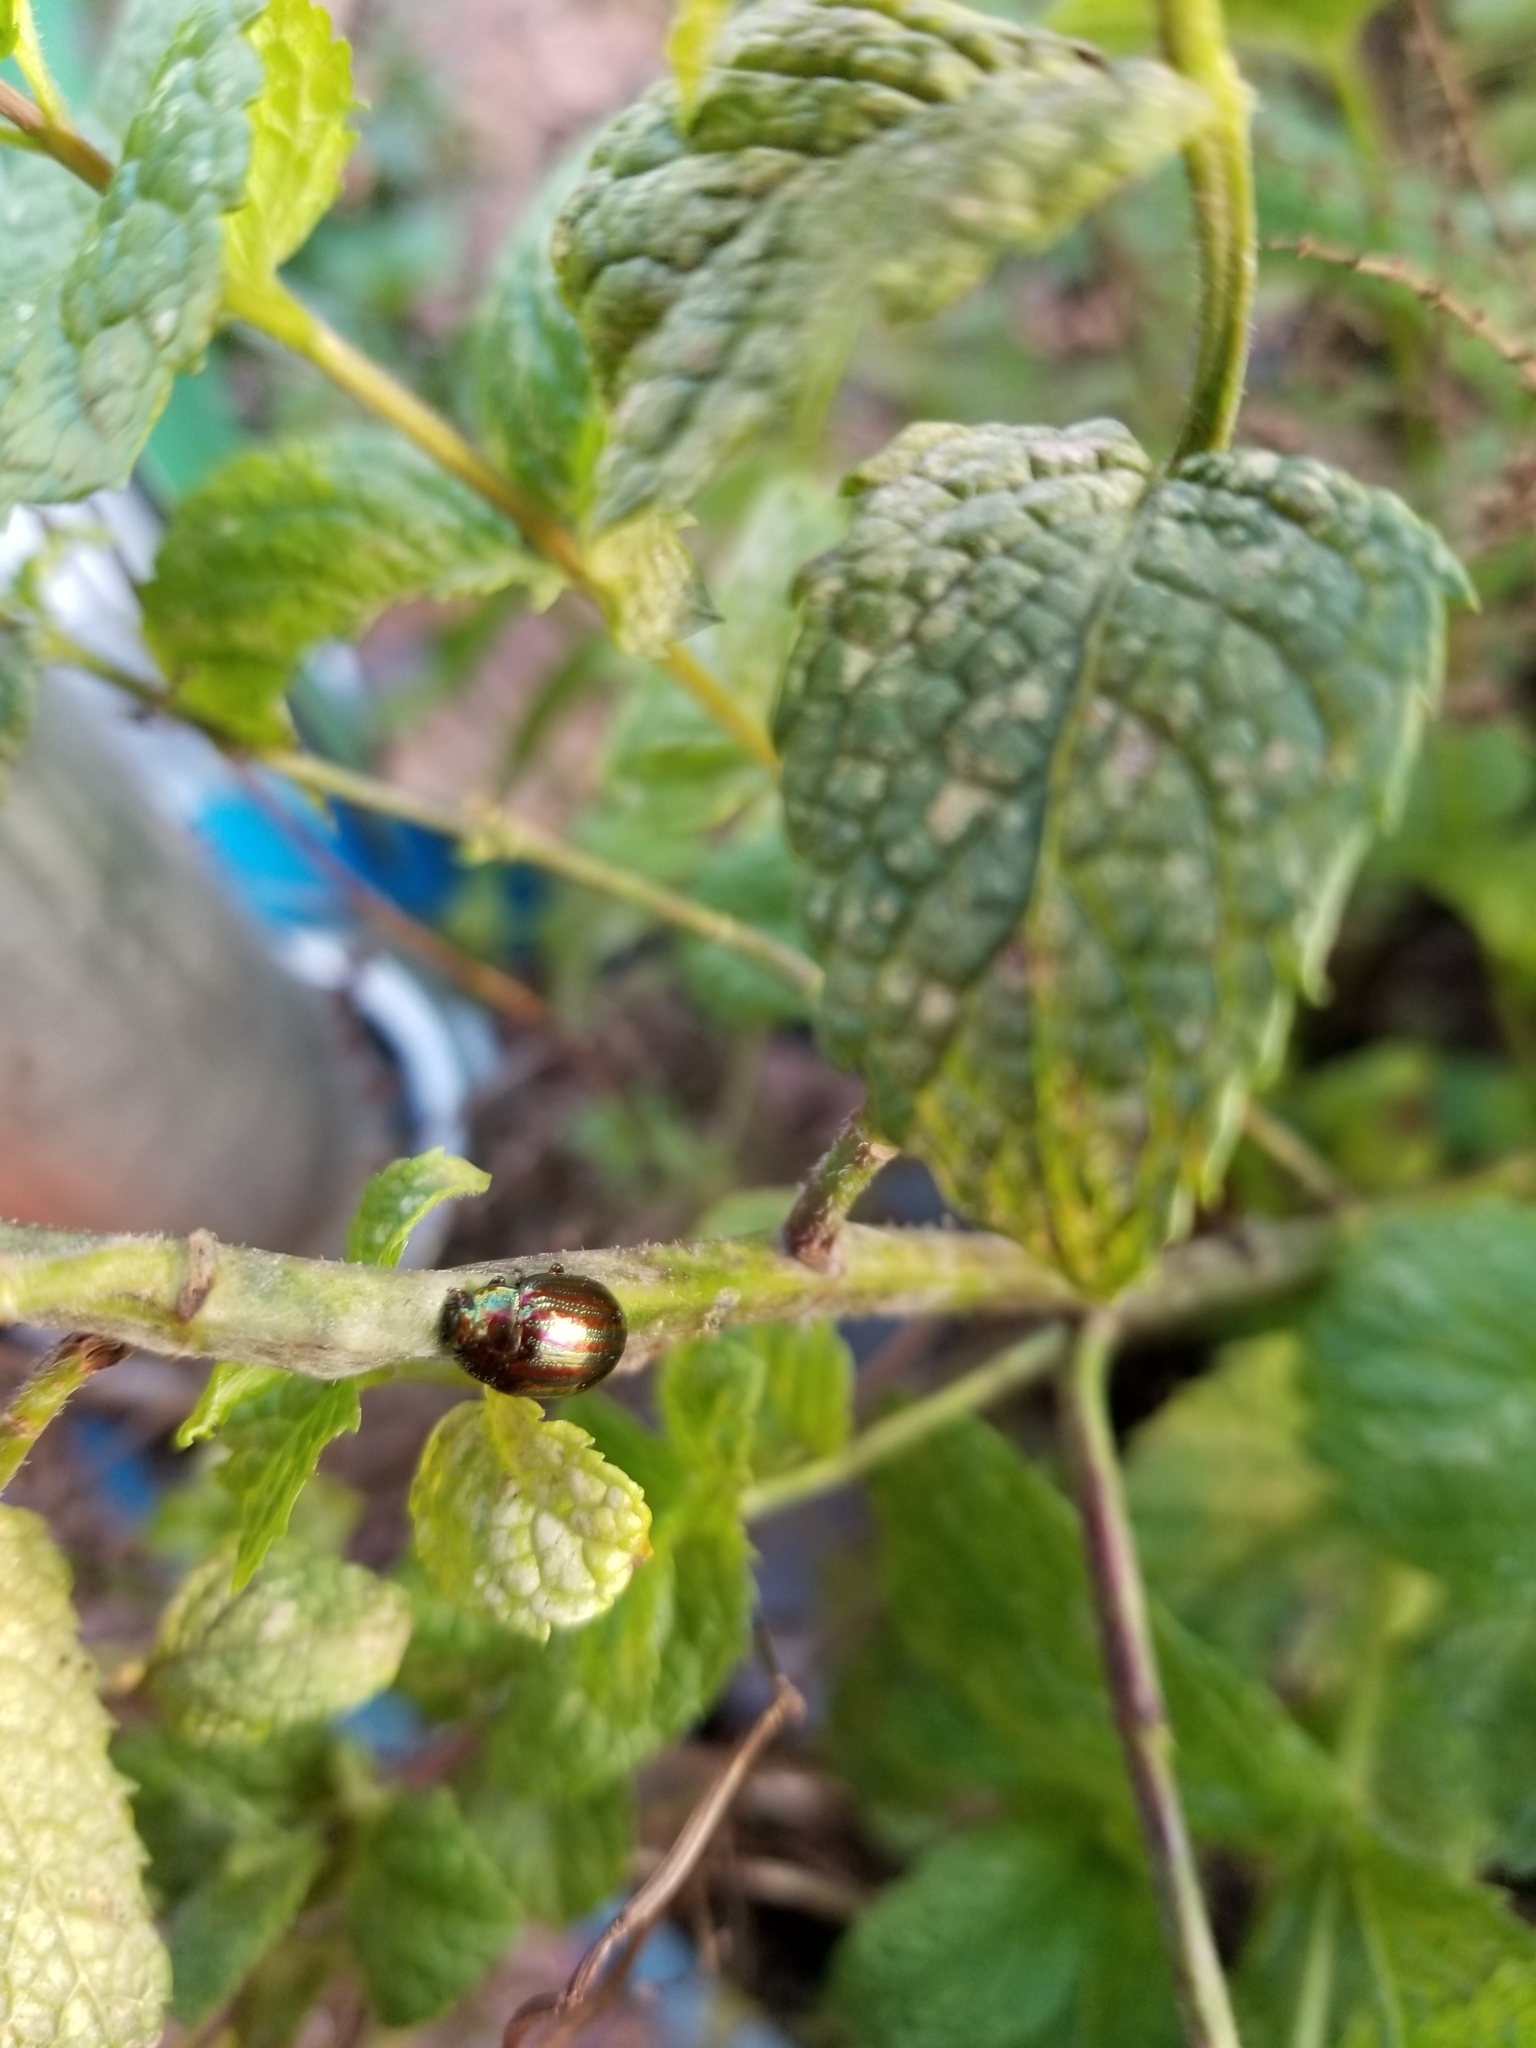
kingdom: Animalia
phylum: Arthropoda
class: Insecta
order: Coleoptera
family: Chrysomelidae
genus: Chrysolina
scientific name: Chrysolina americana
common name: Rosemary beetle
